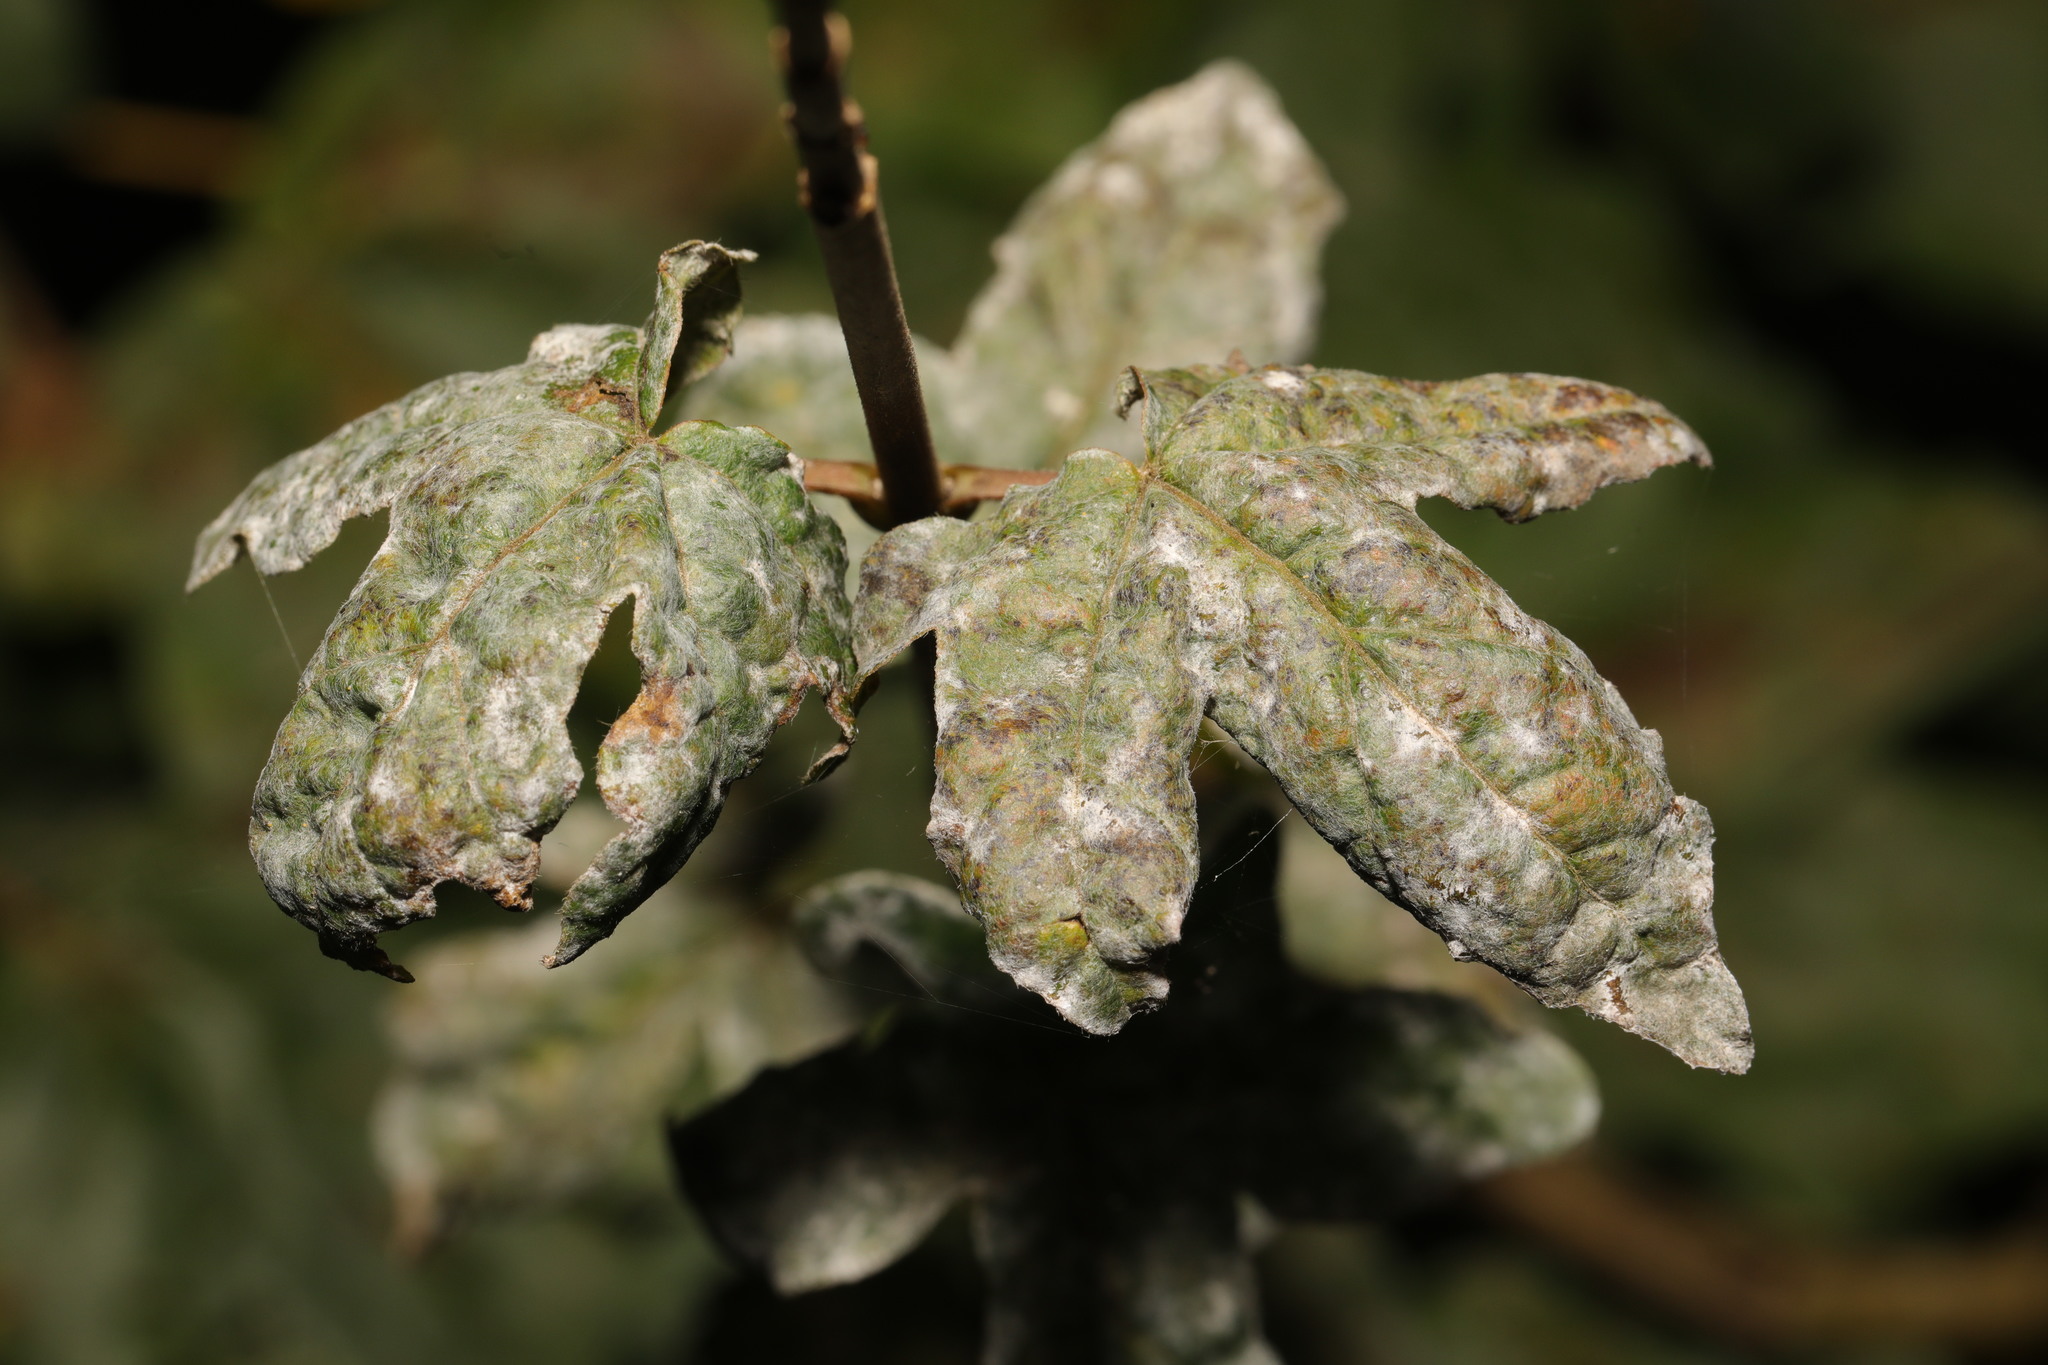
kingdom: Fungi
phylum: Ascomycota
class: Leotiomycetes
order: Helotiales
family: Erysiphaceae
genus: Sawadaea
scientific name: Sawadaea bicornis
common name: Maple mildew
